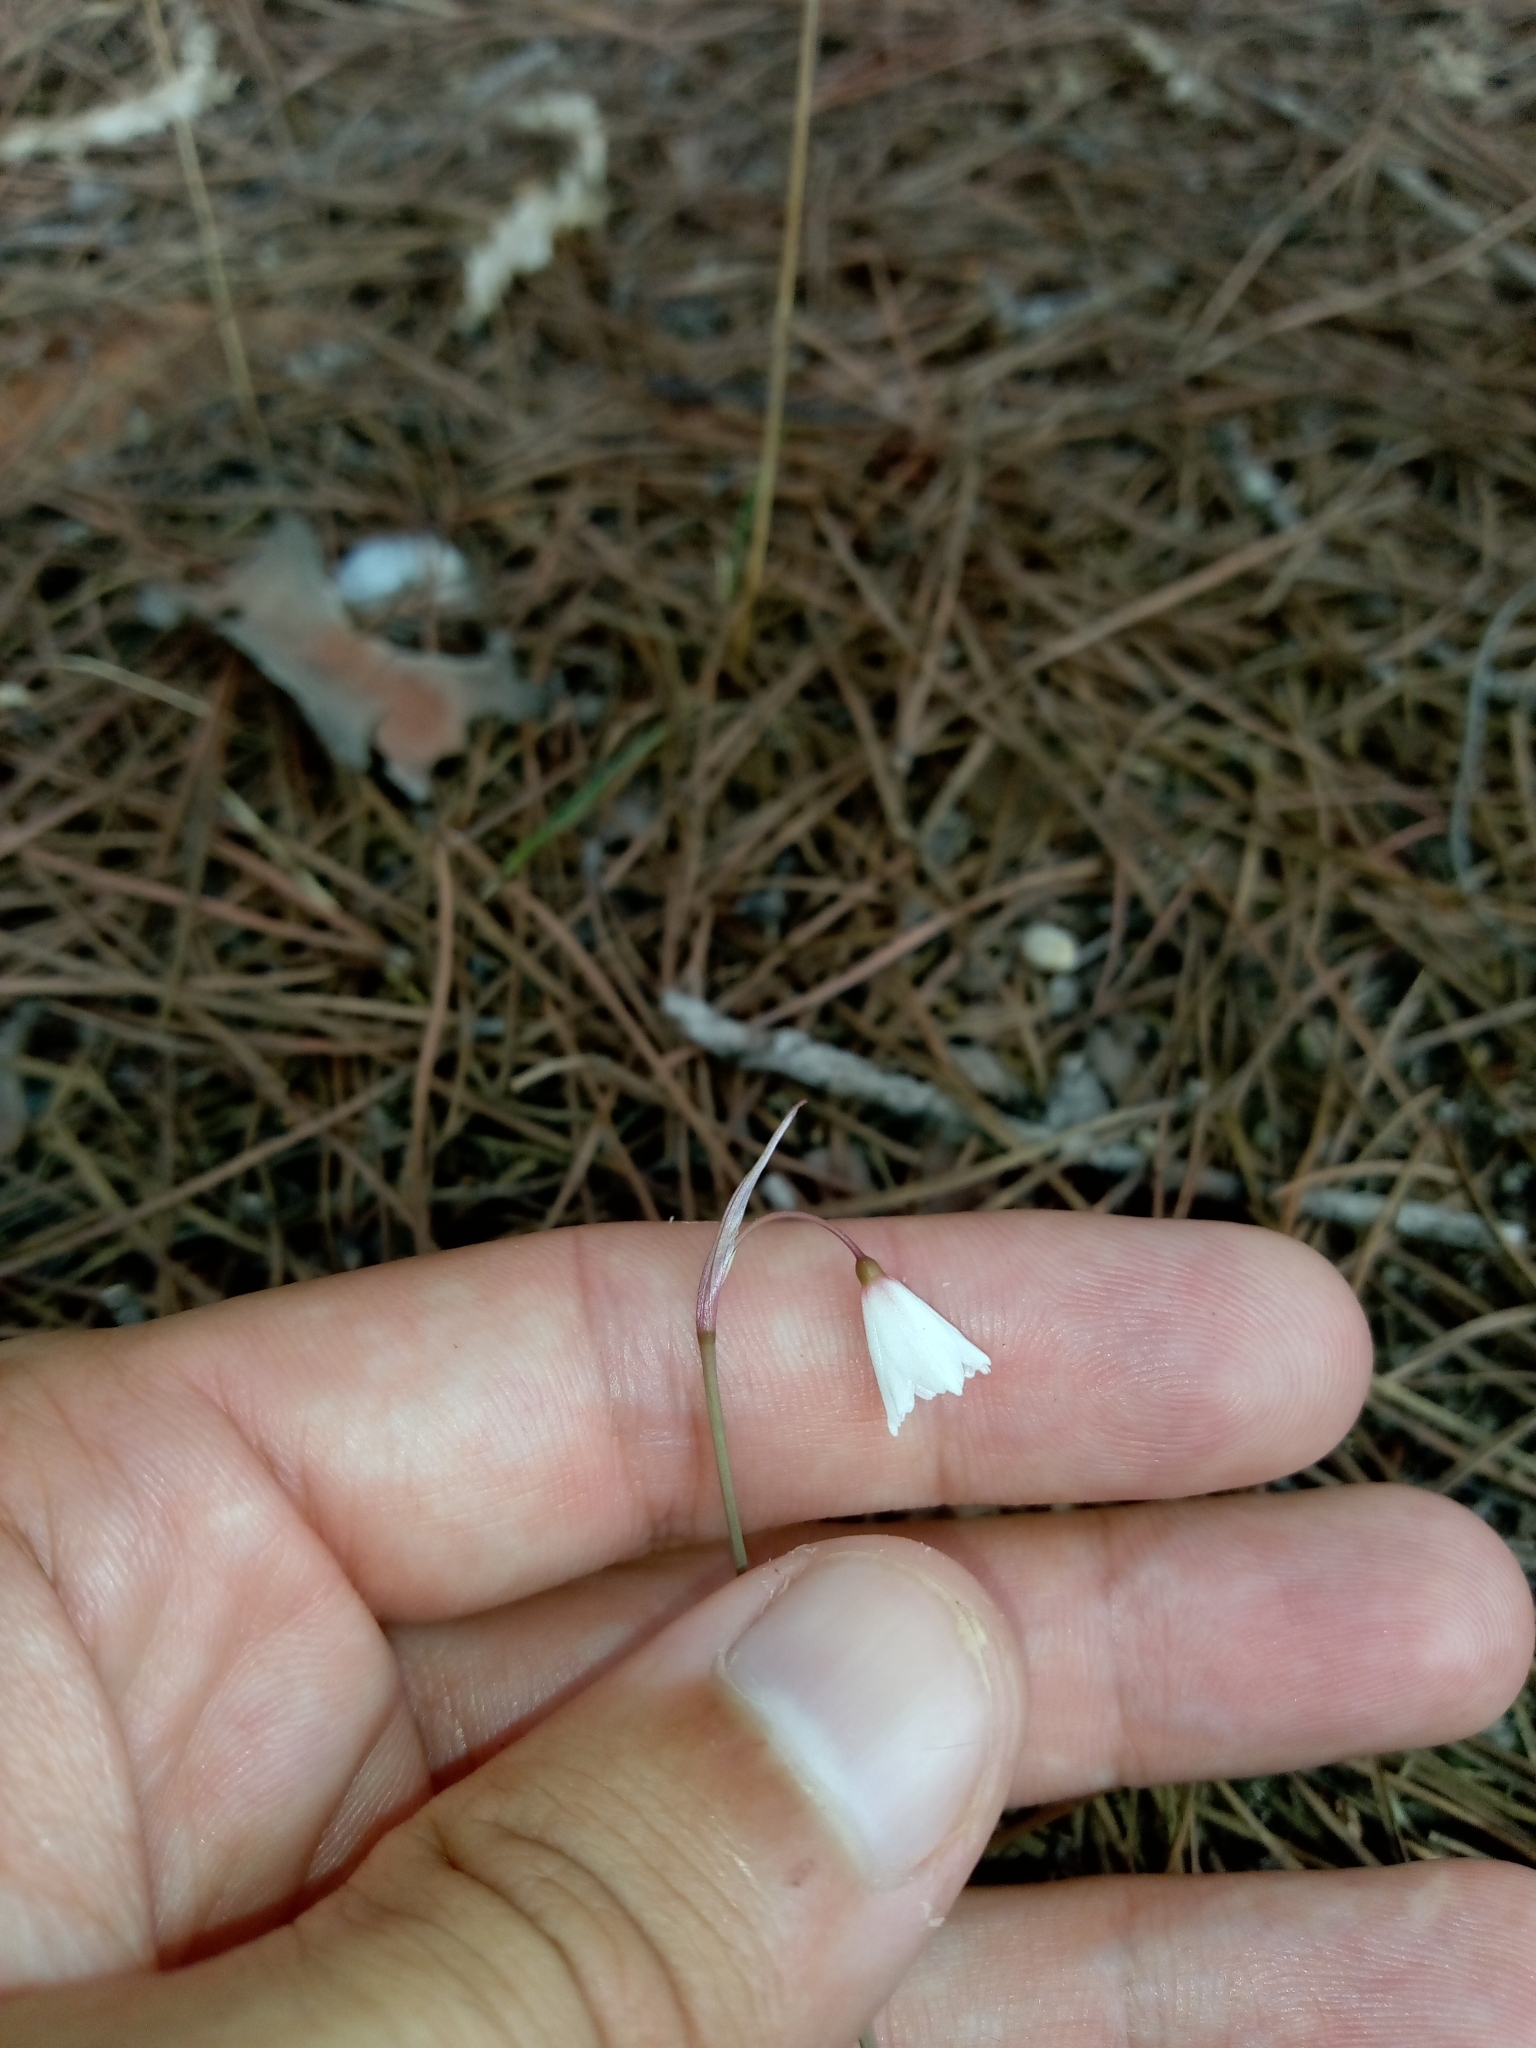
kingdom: Plantae
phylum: Tracheophyta
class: Liliopsida
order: Asparagales
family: Amaryllidaceae
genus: Acis
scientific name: Acis autumnalis
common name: Autumn snowflake
